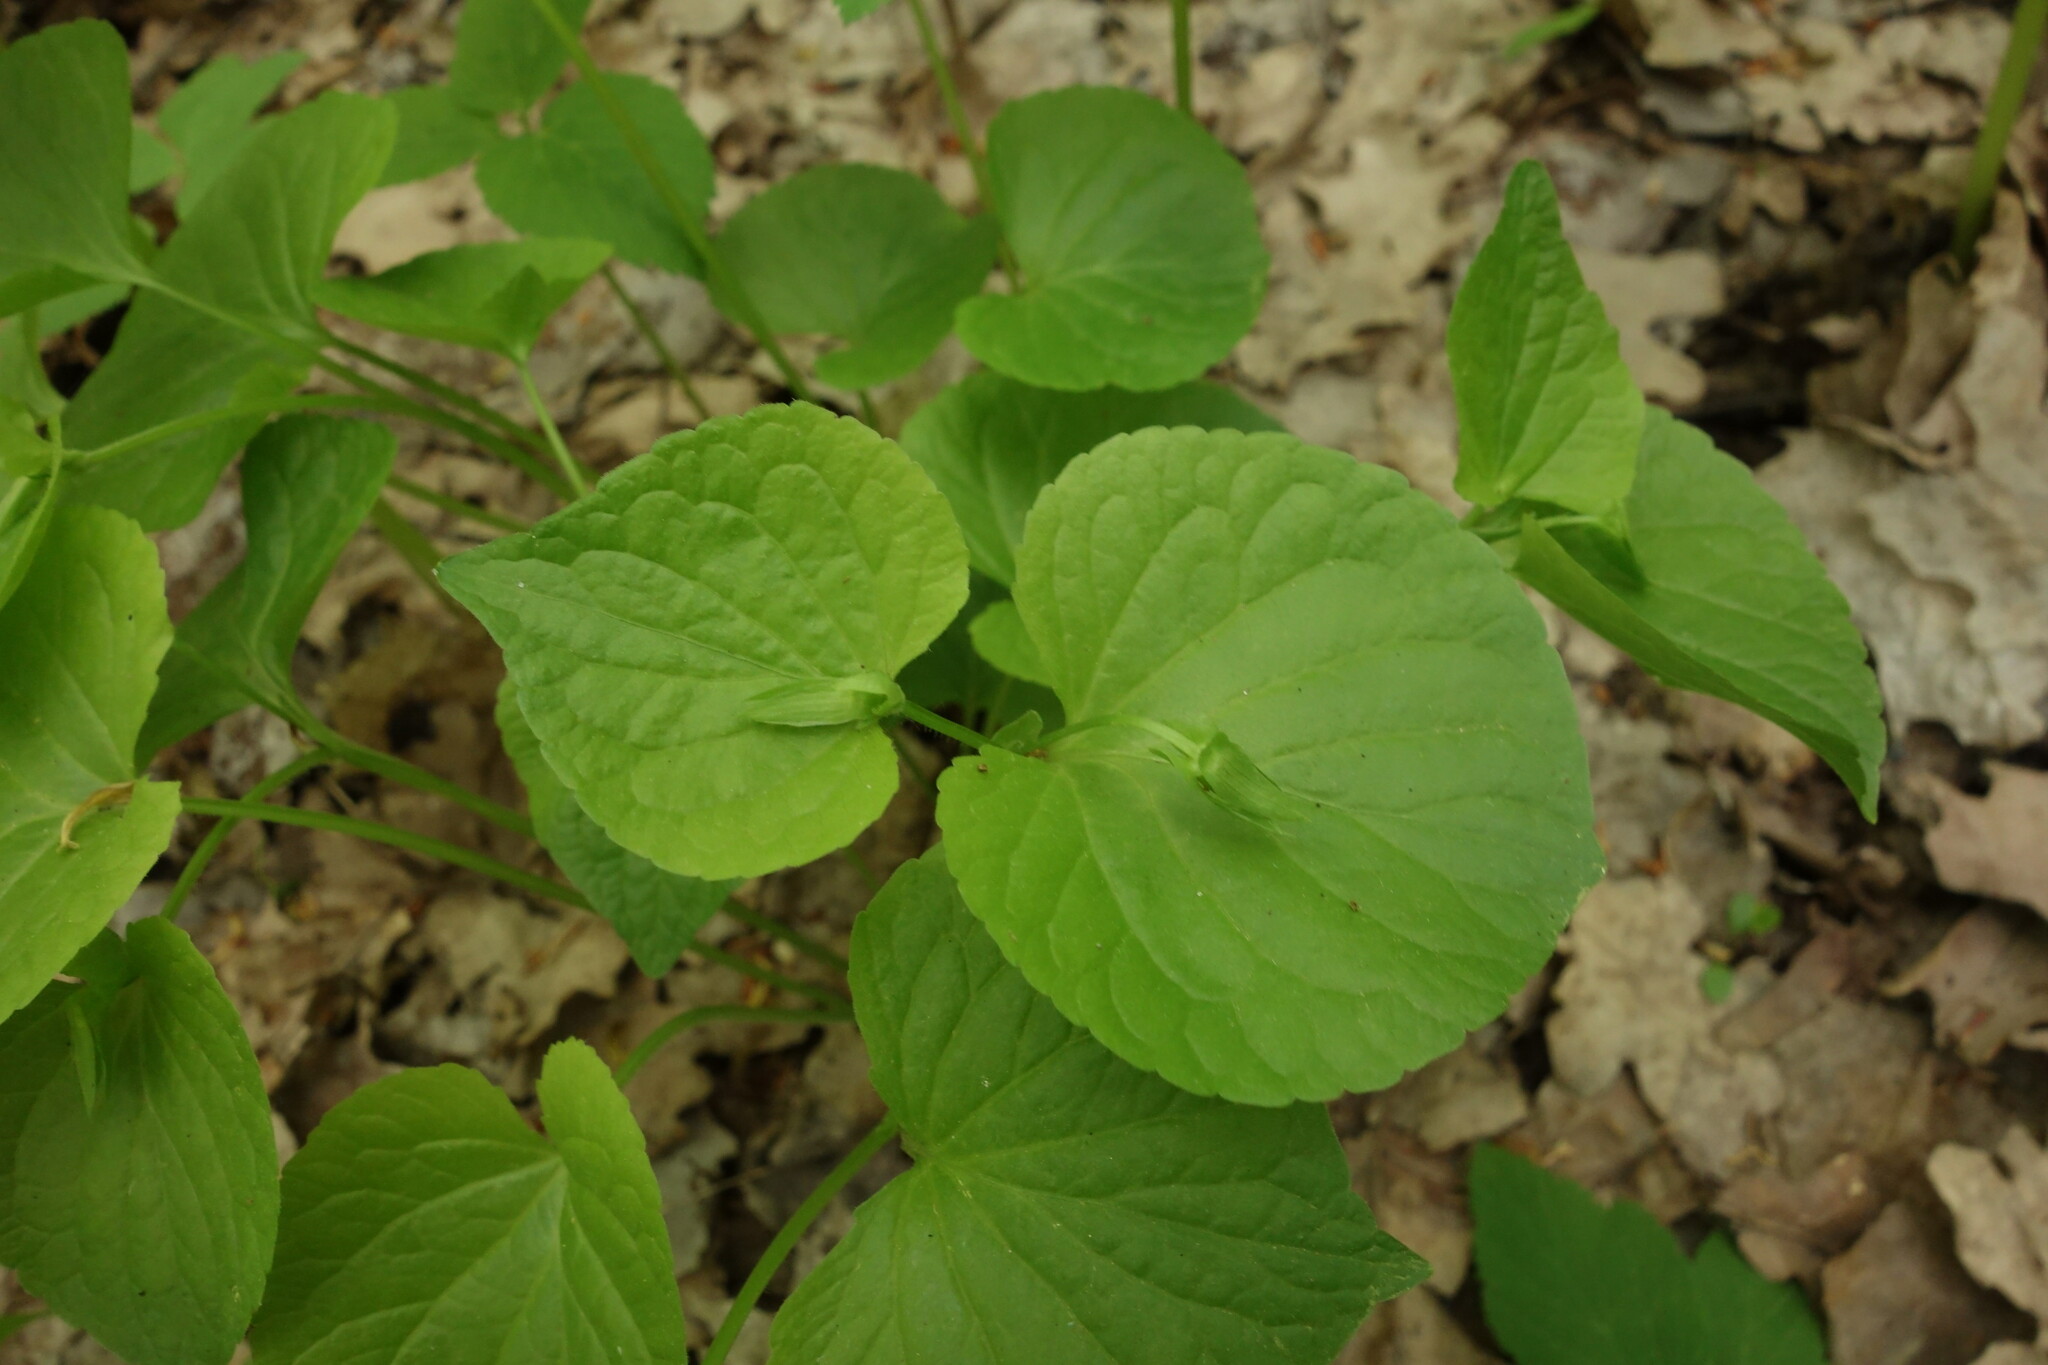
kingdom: Plantae
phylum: Tracheophyta
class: Magnoliopsida
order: Malpighiales
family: Violaceae
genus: Viola
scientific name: Viola mirabilis
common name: Wonder violet
